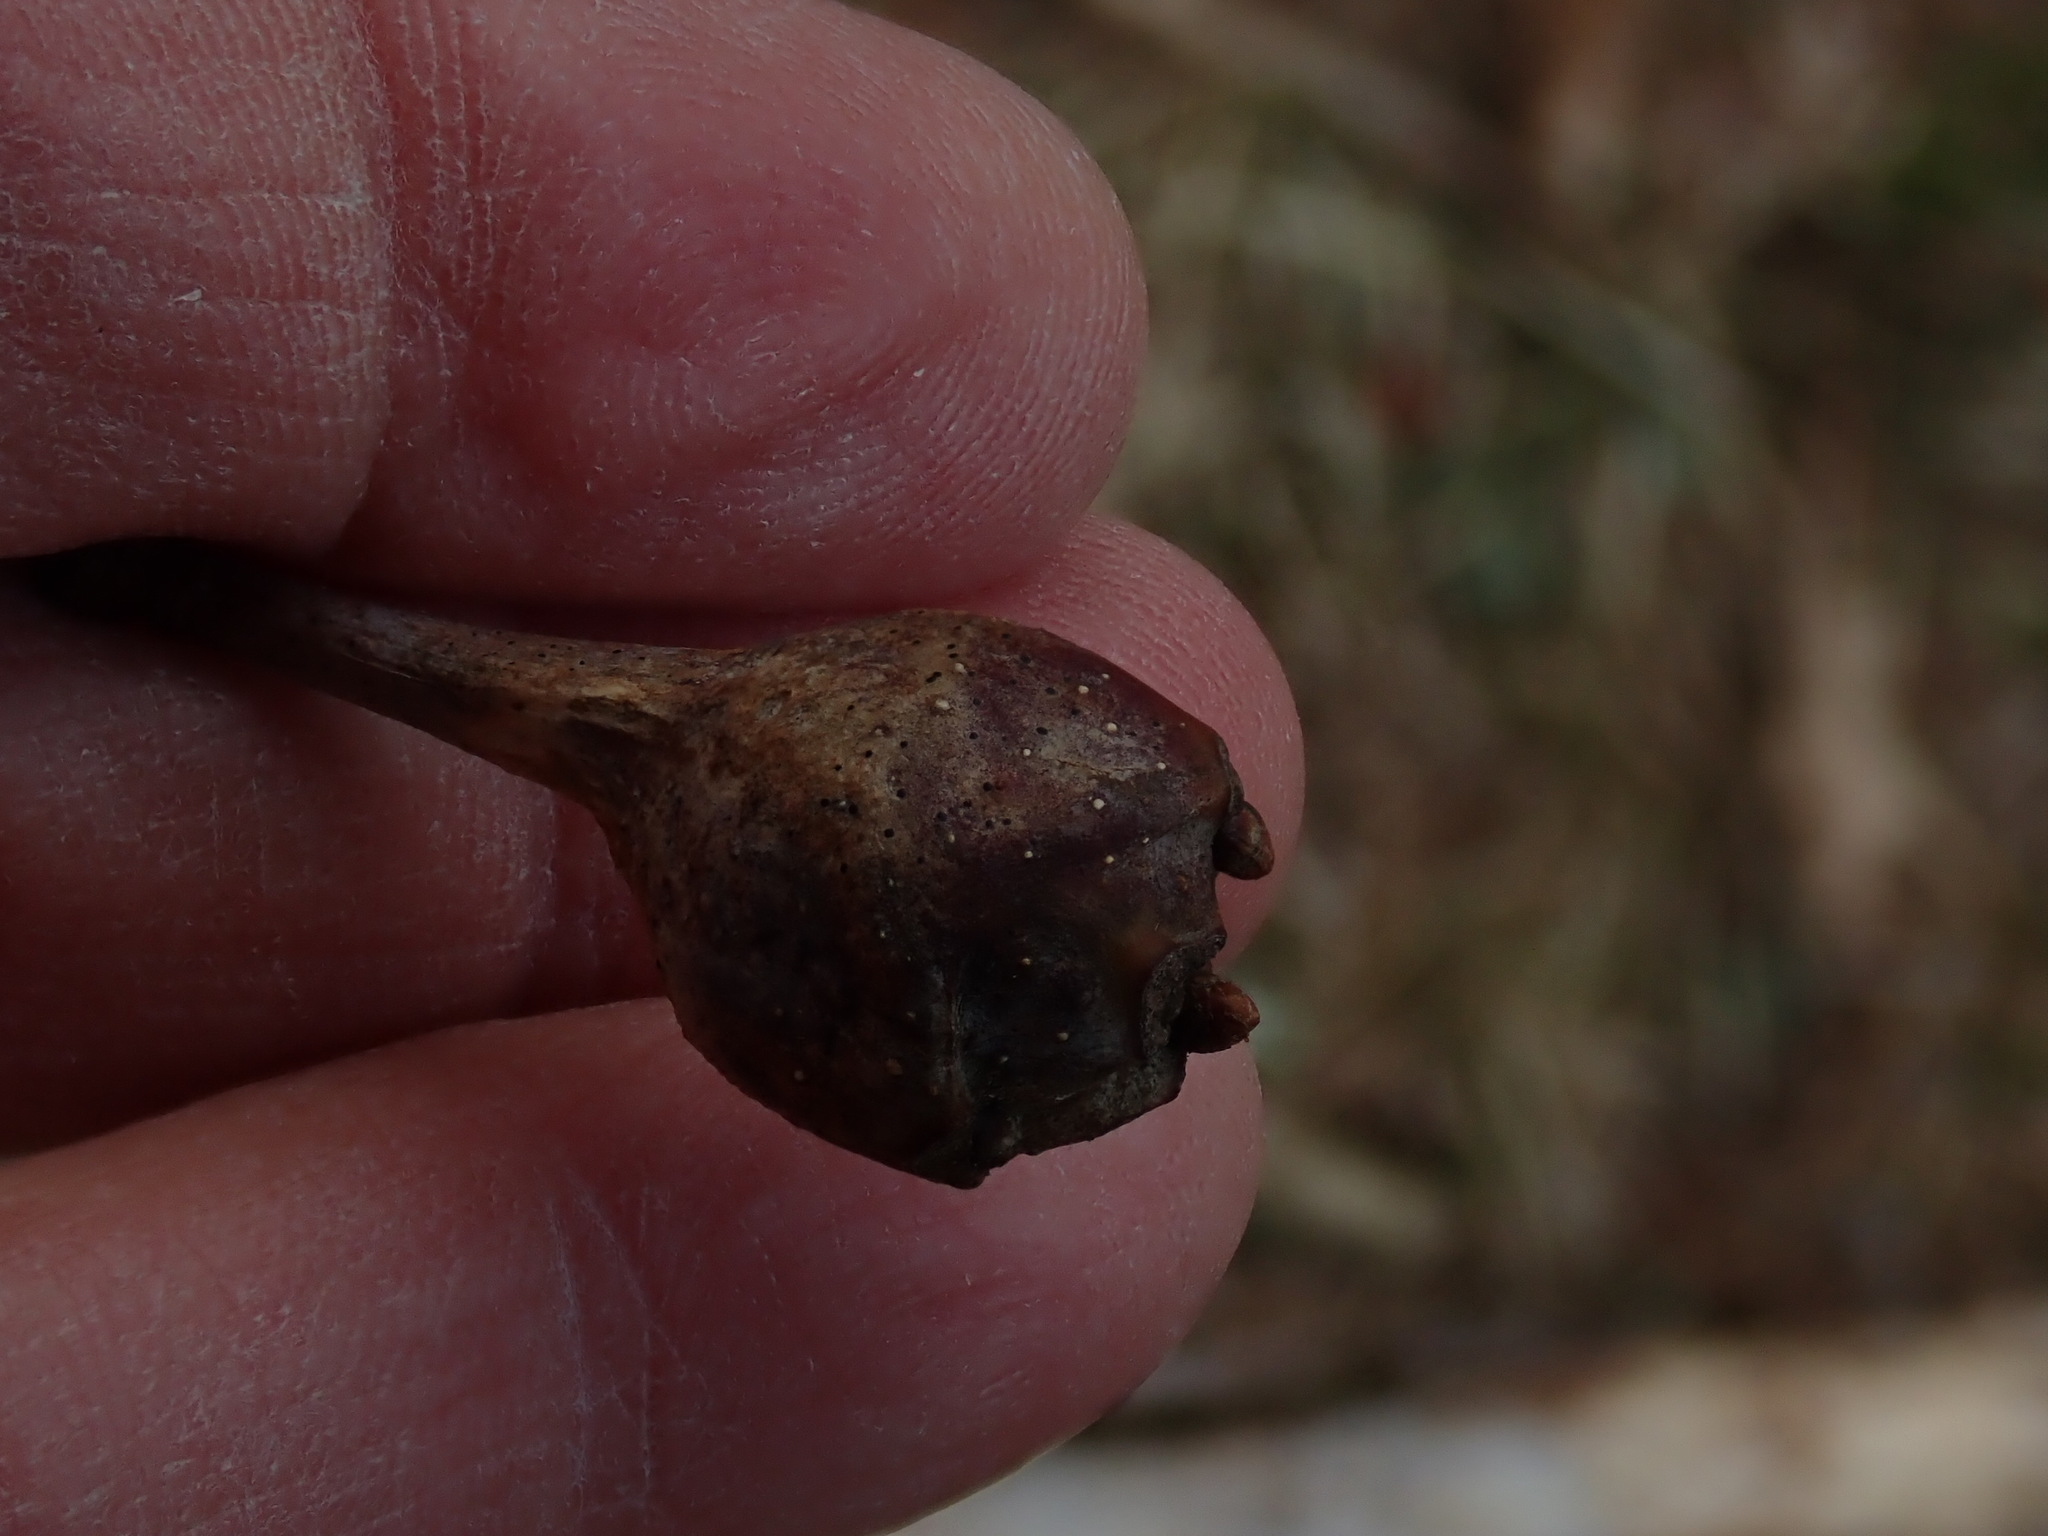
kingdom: Animalia
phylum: Arthropoda
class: Insecta
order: Hymenoptera
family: Cynipidae
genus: Callirhytis
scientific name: Callirhytis clavula
